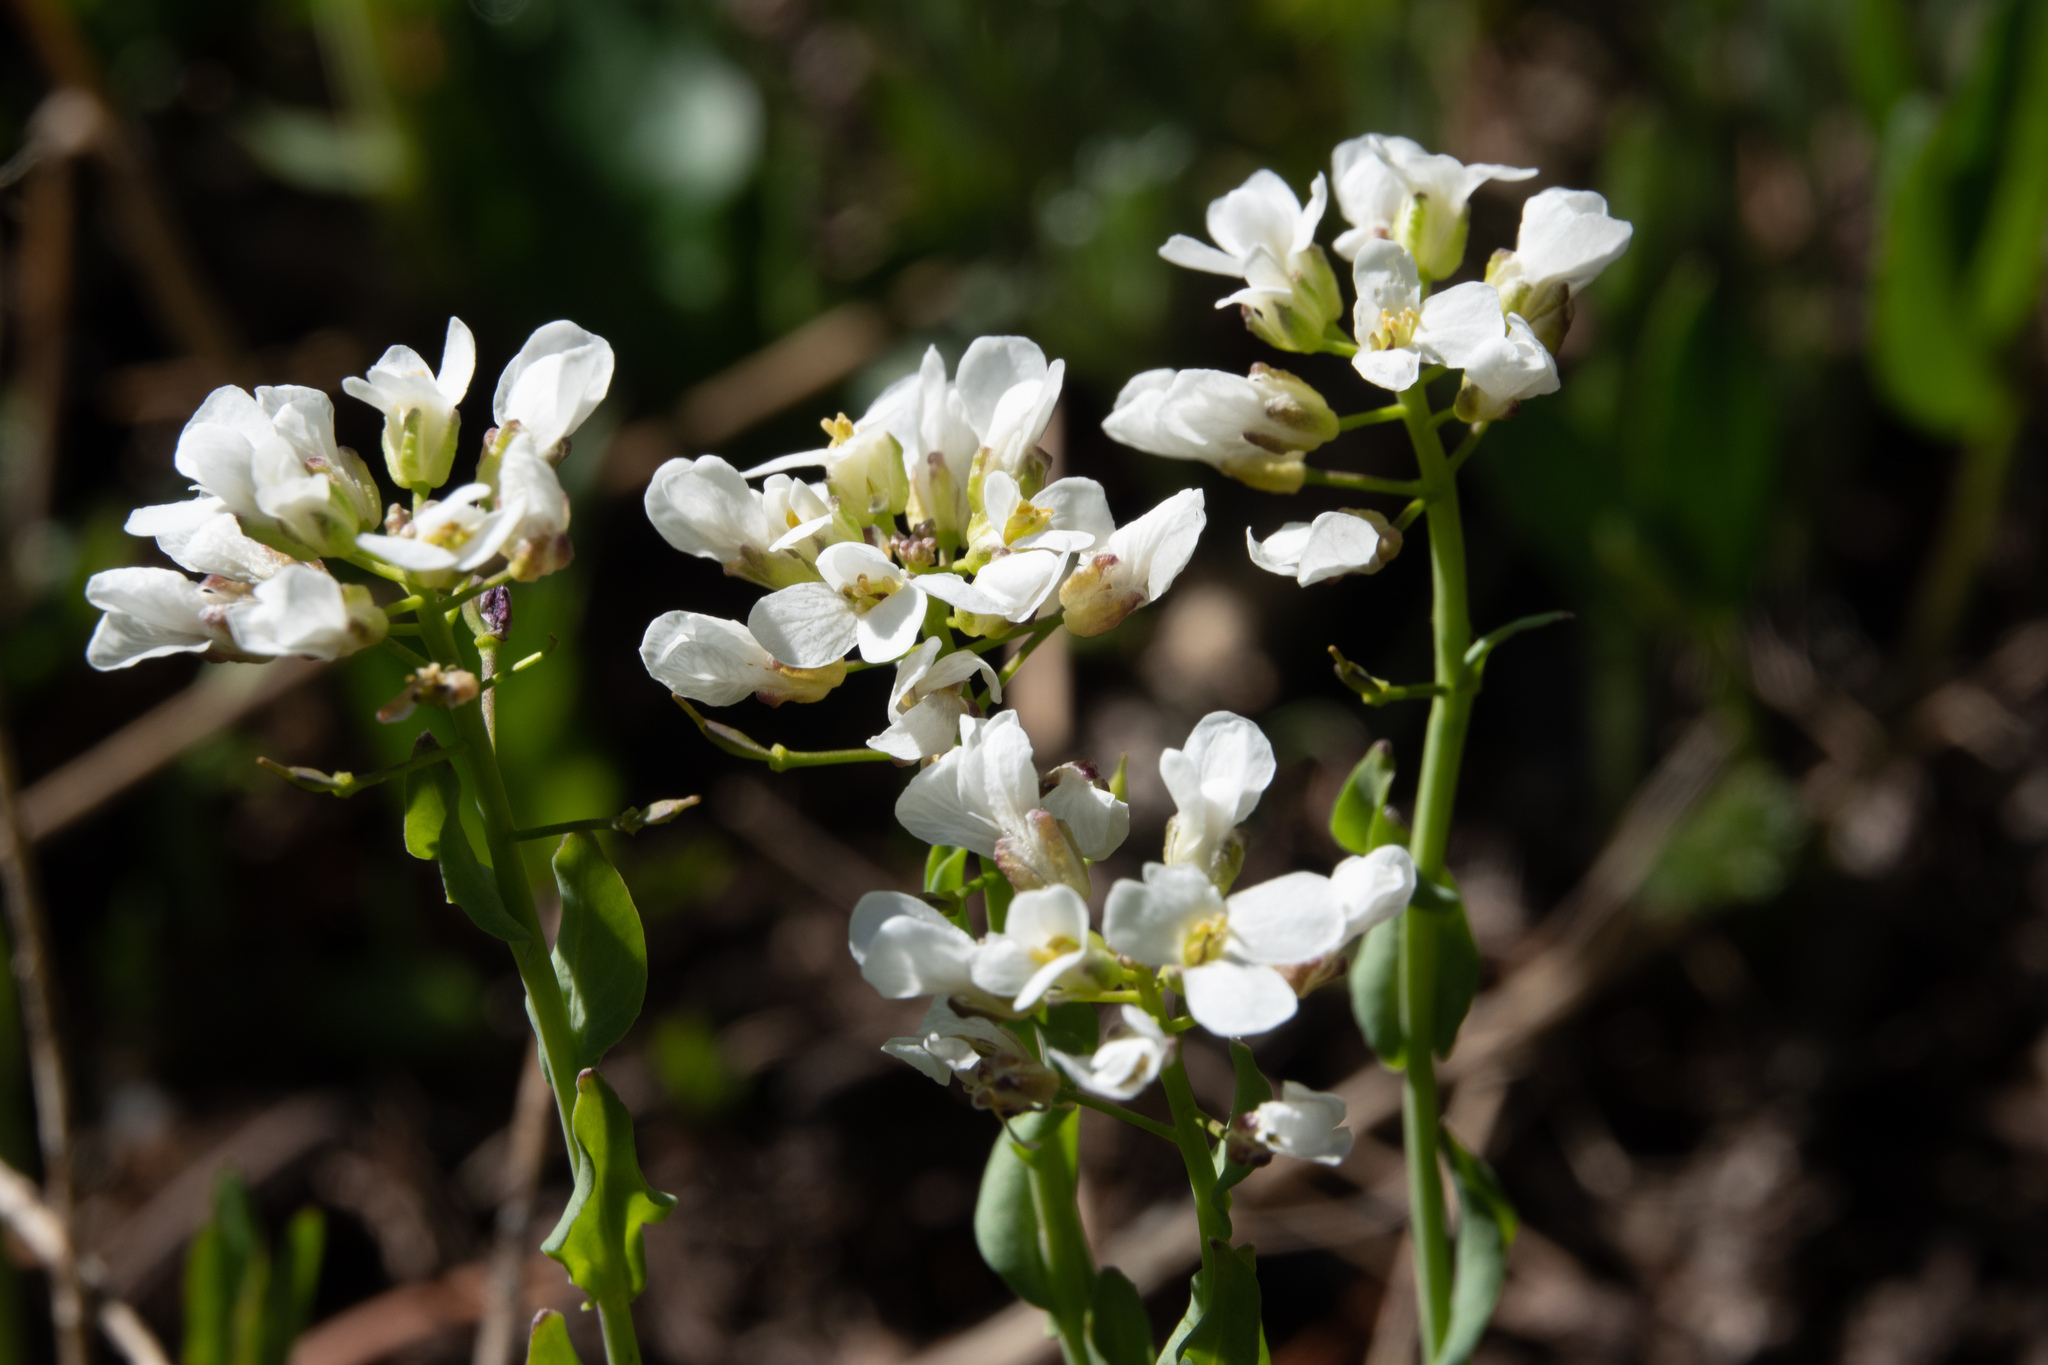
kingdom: Plantae
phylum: Tracheophyta
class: Magnoliopsida
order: Brassicales
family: Brassicaceae
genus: Noccaea
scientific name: Noccaea fendleri
